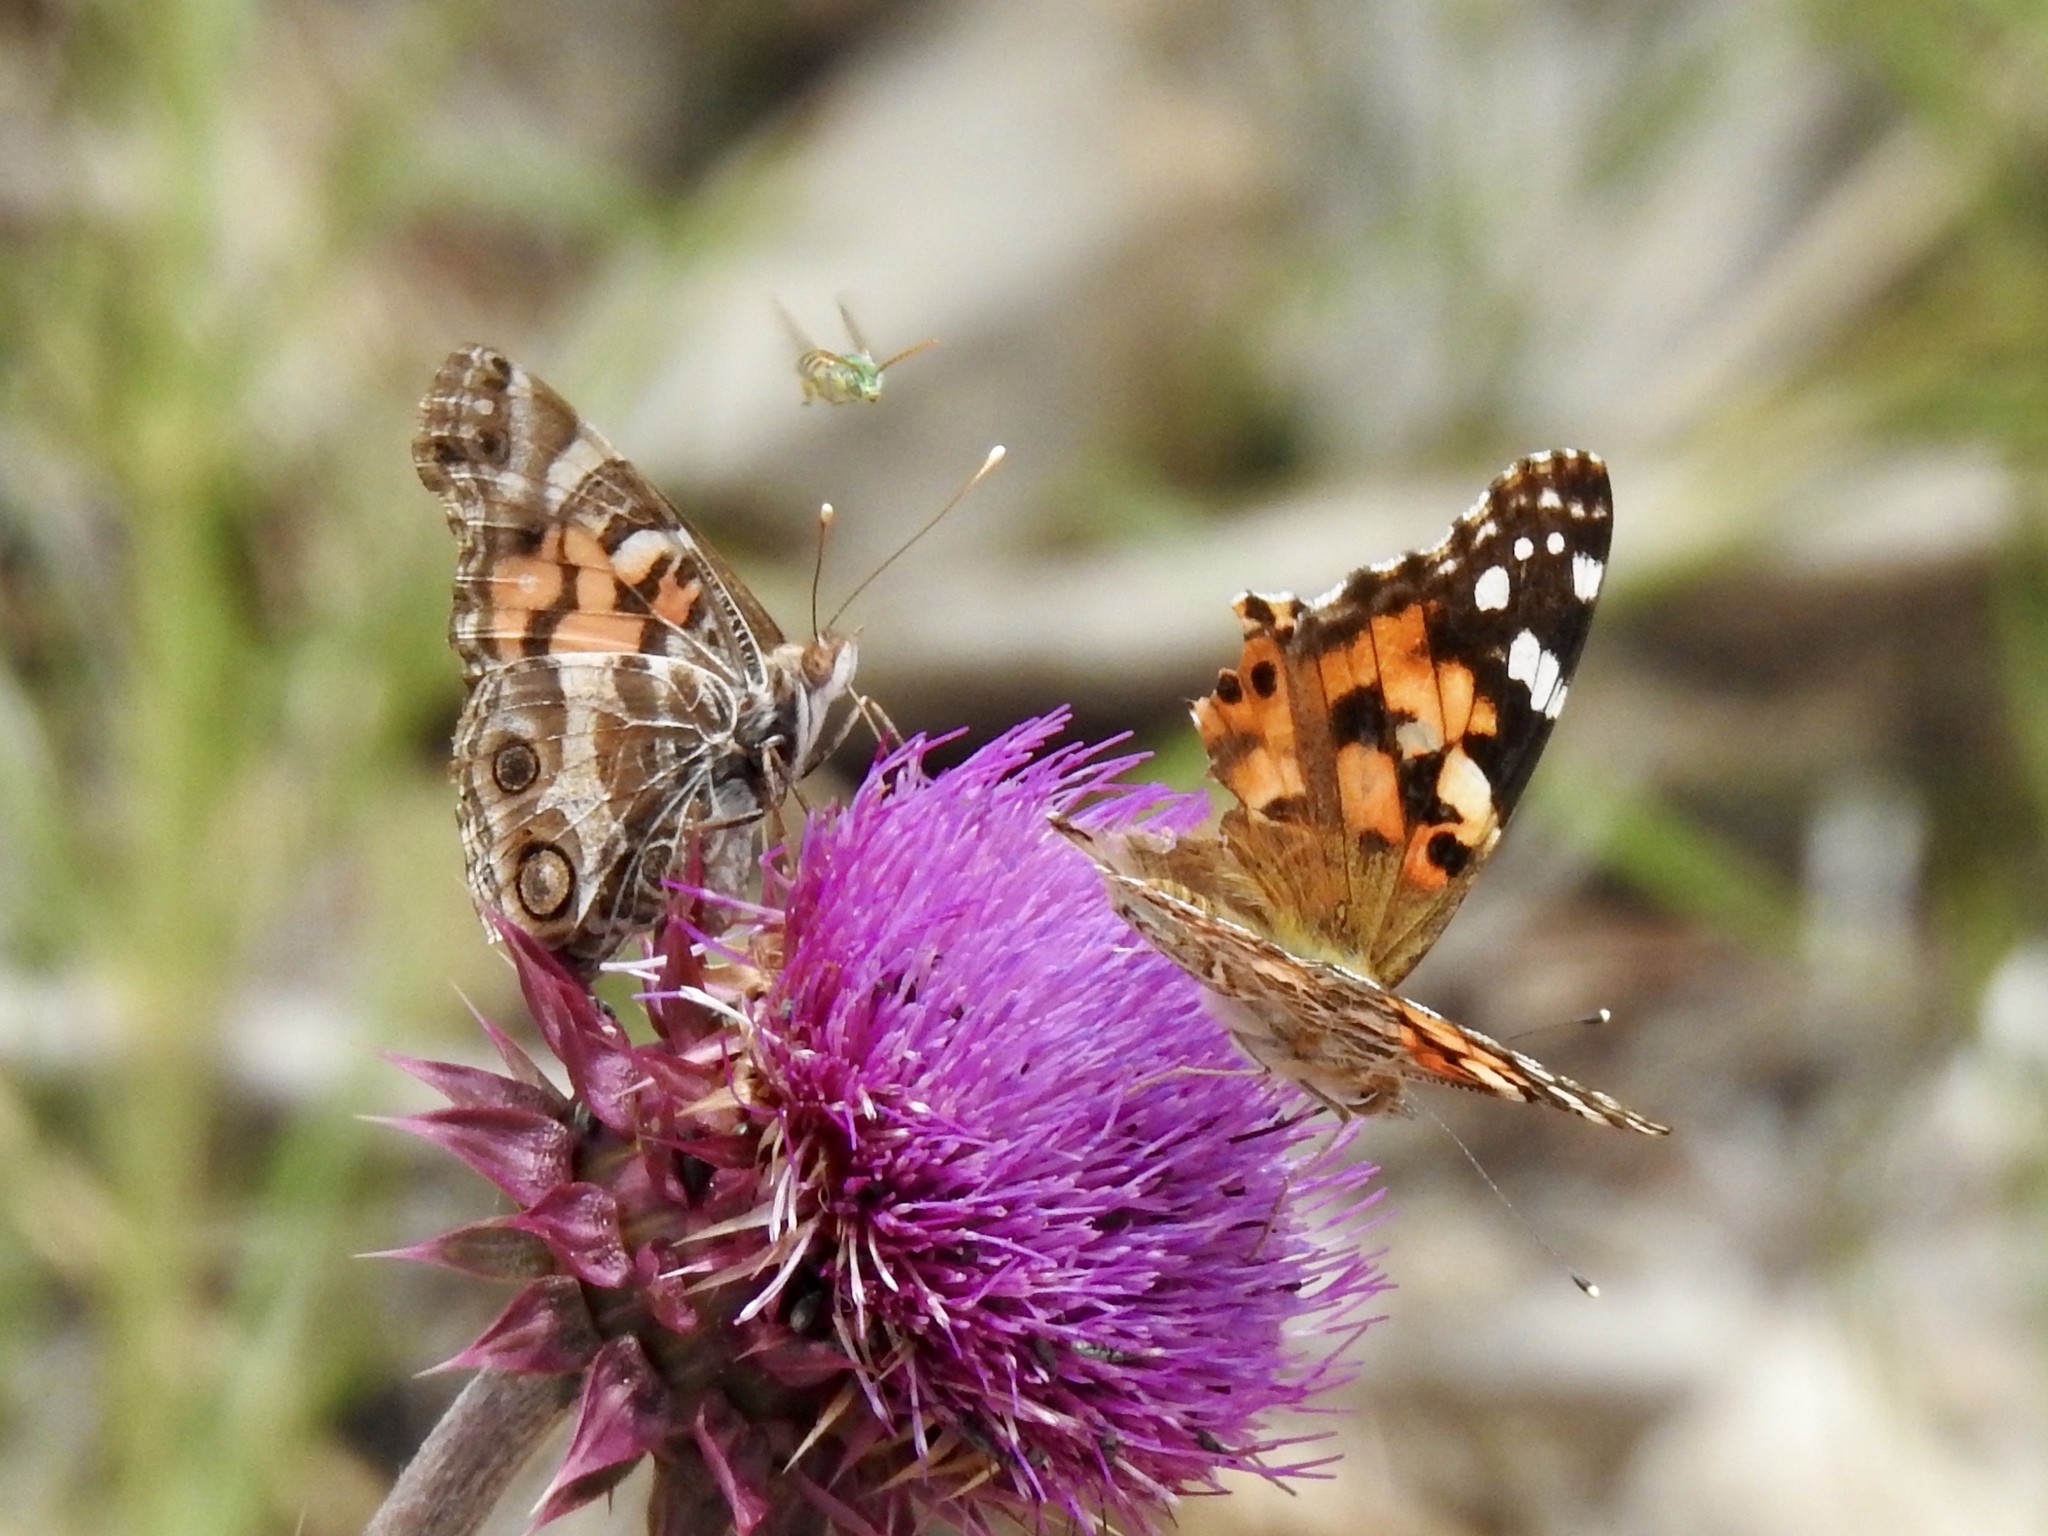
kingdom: Animalia
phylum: Arthropoda
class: Insecta
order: Lepidoptera
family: Nymphalidae
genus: Vanessa
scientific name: Vanessa cardui
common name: Painted lady
